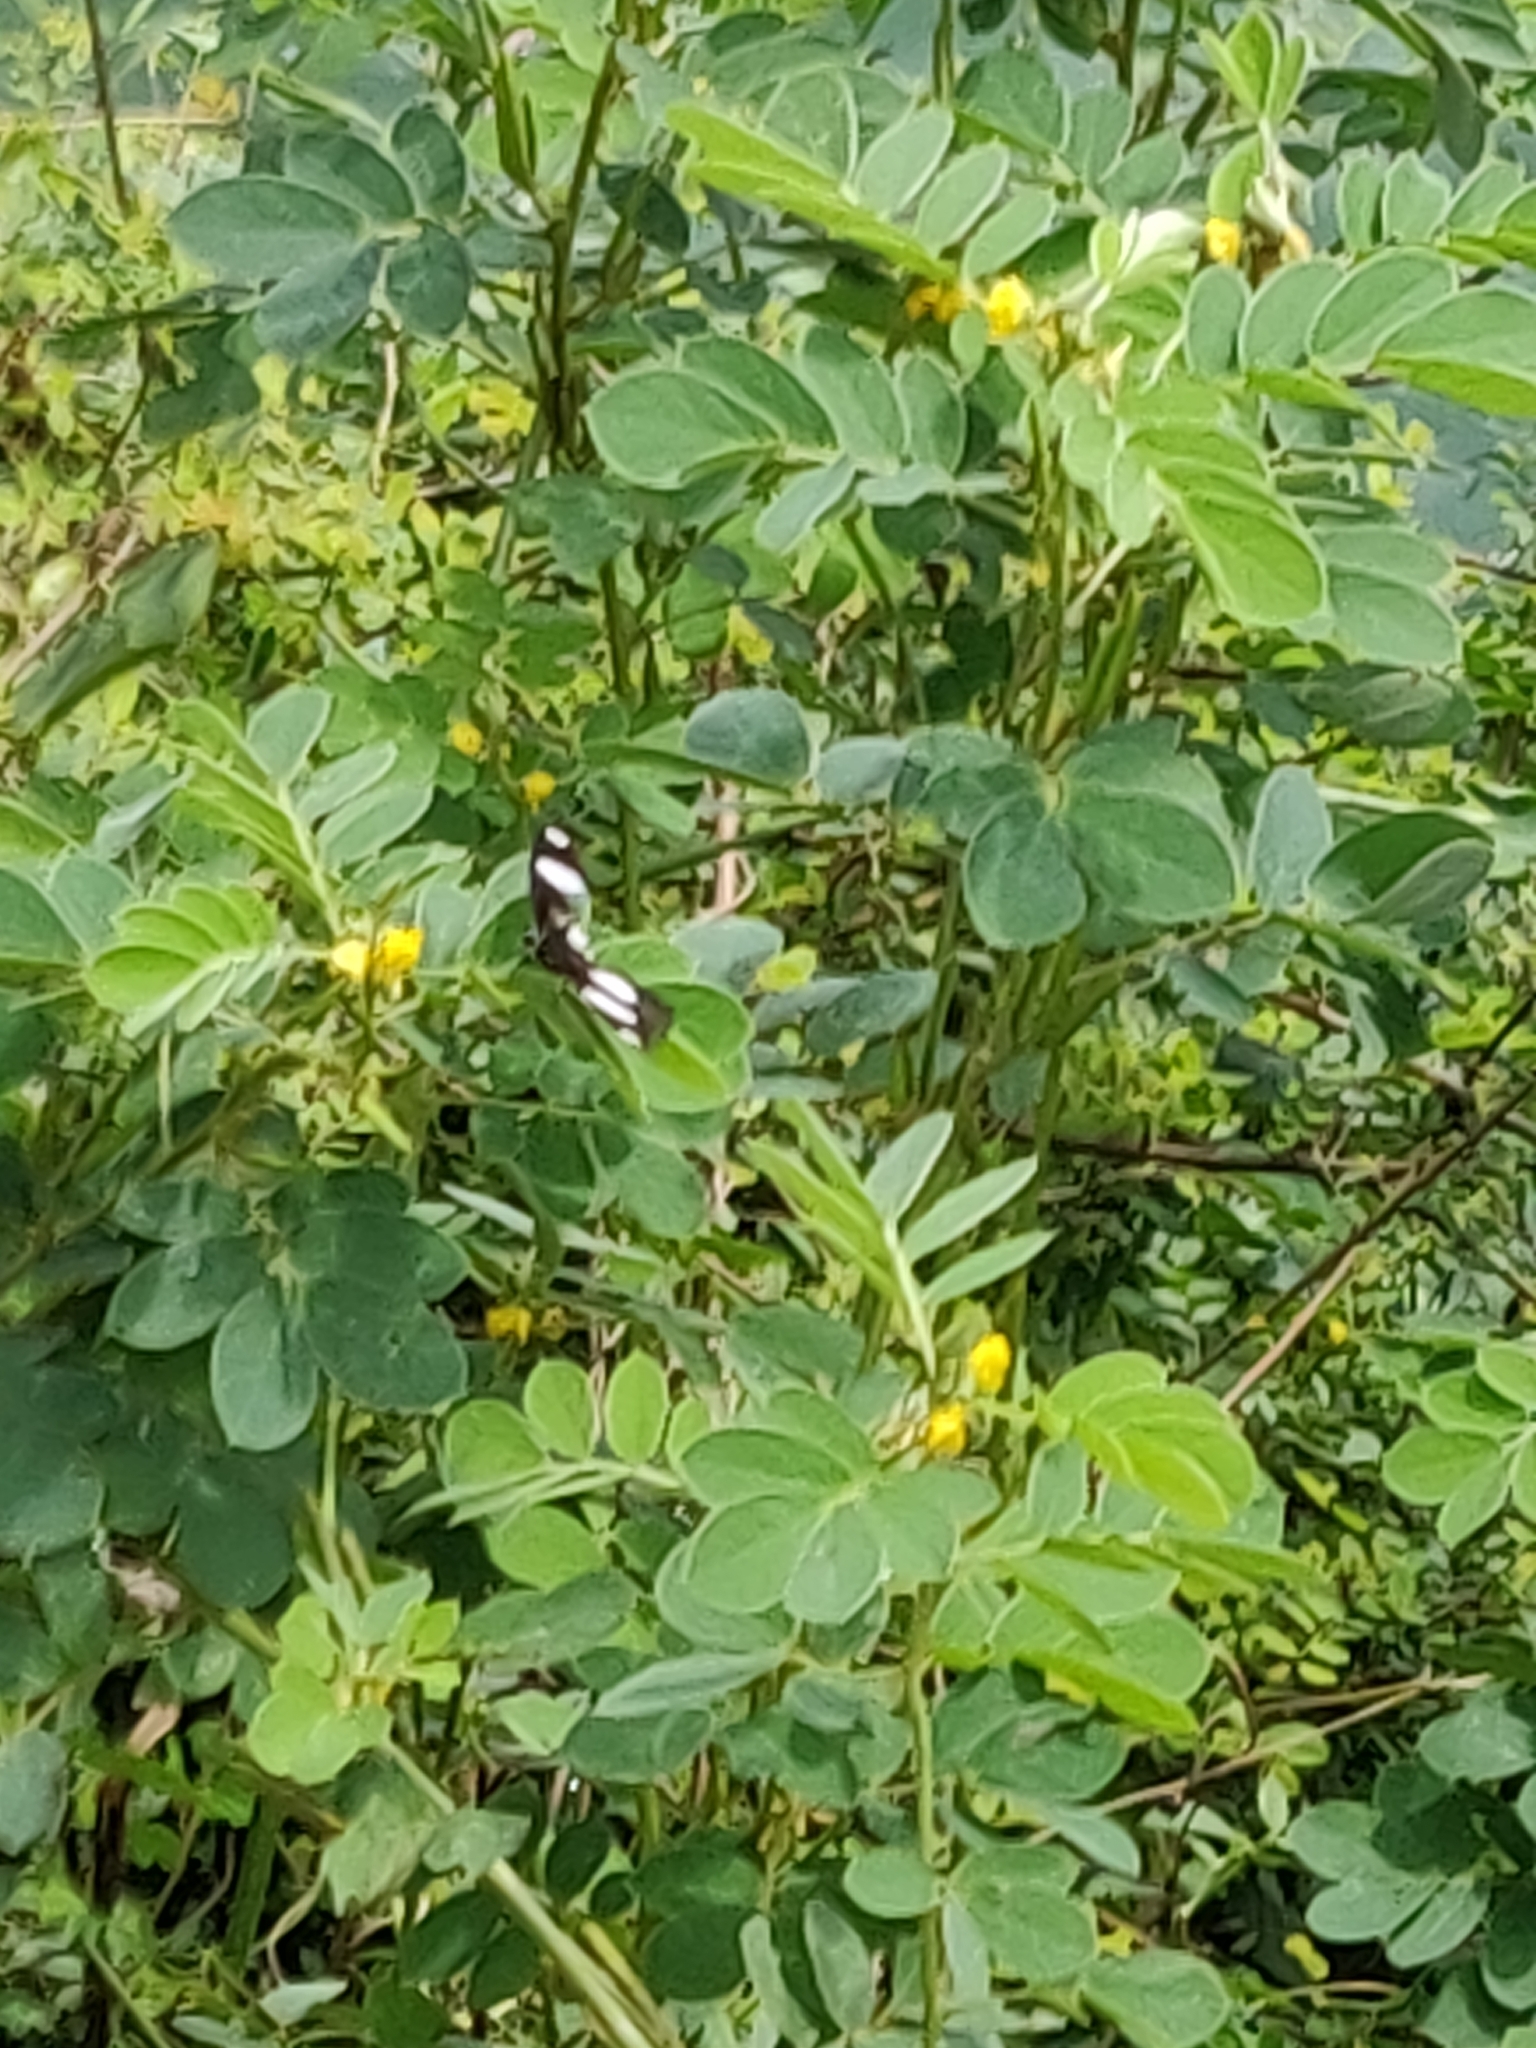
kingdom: Animalia
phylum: Arthropoda
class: Insecta
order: Lepidoptera
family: Nymphalidae
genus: Hypolimnas
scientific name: Hypolimnas misippus
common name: False plain tiger
